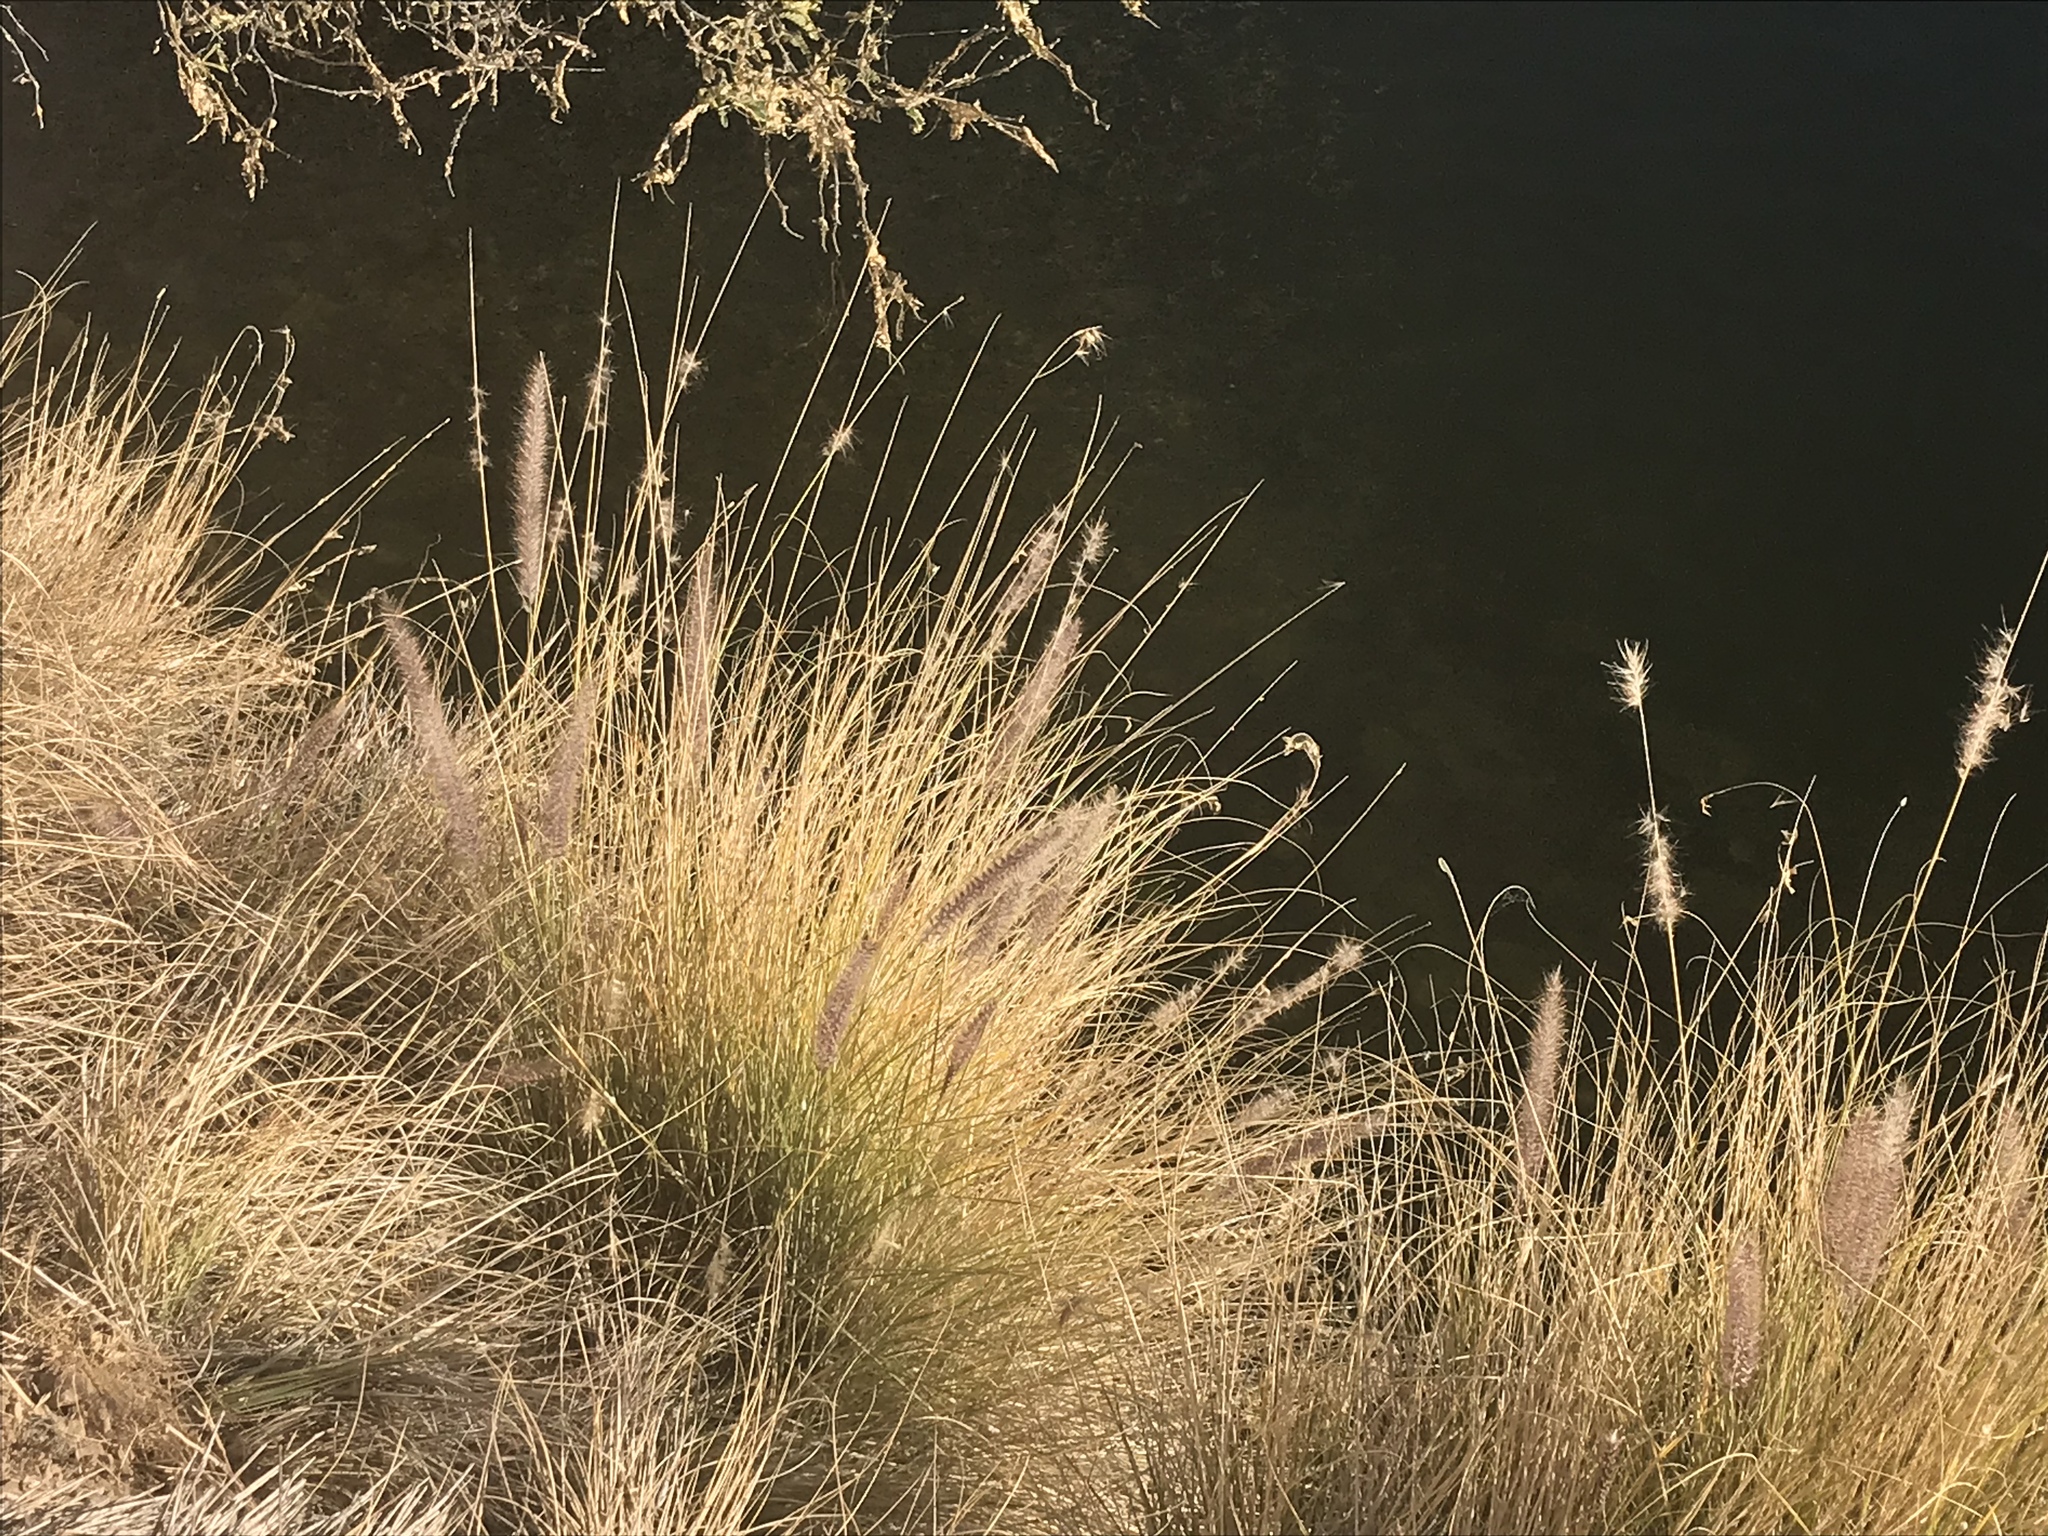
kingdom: Plantae
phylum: Tracheophyta
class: Liliopsida
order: Poales
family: Poaceae
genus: Cenchrus
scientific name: Cenchrus setaceus
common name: Crimson fountaingrass
